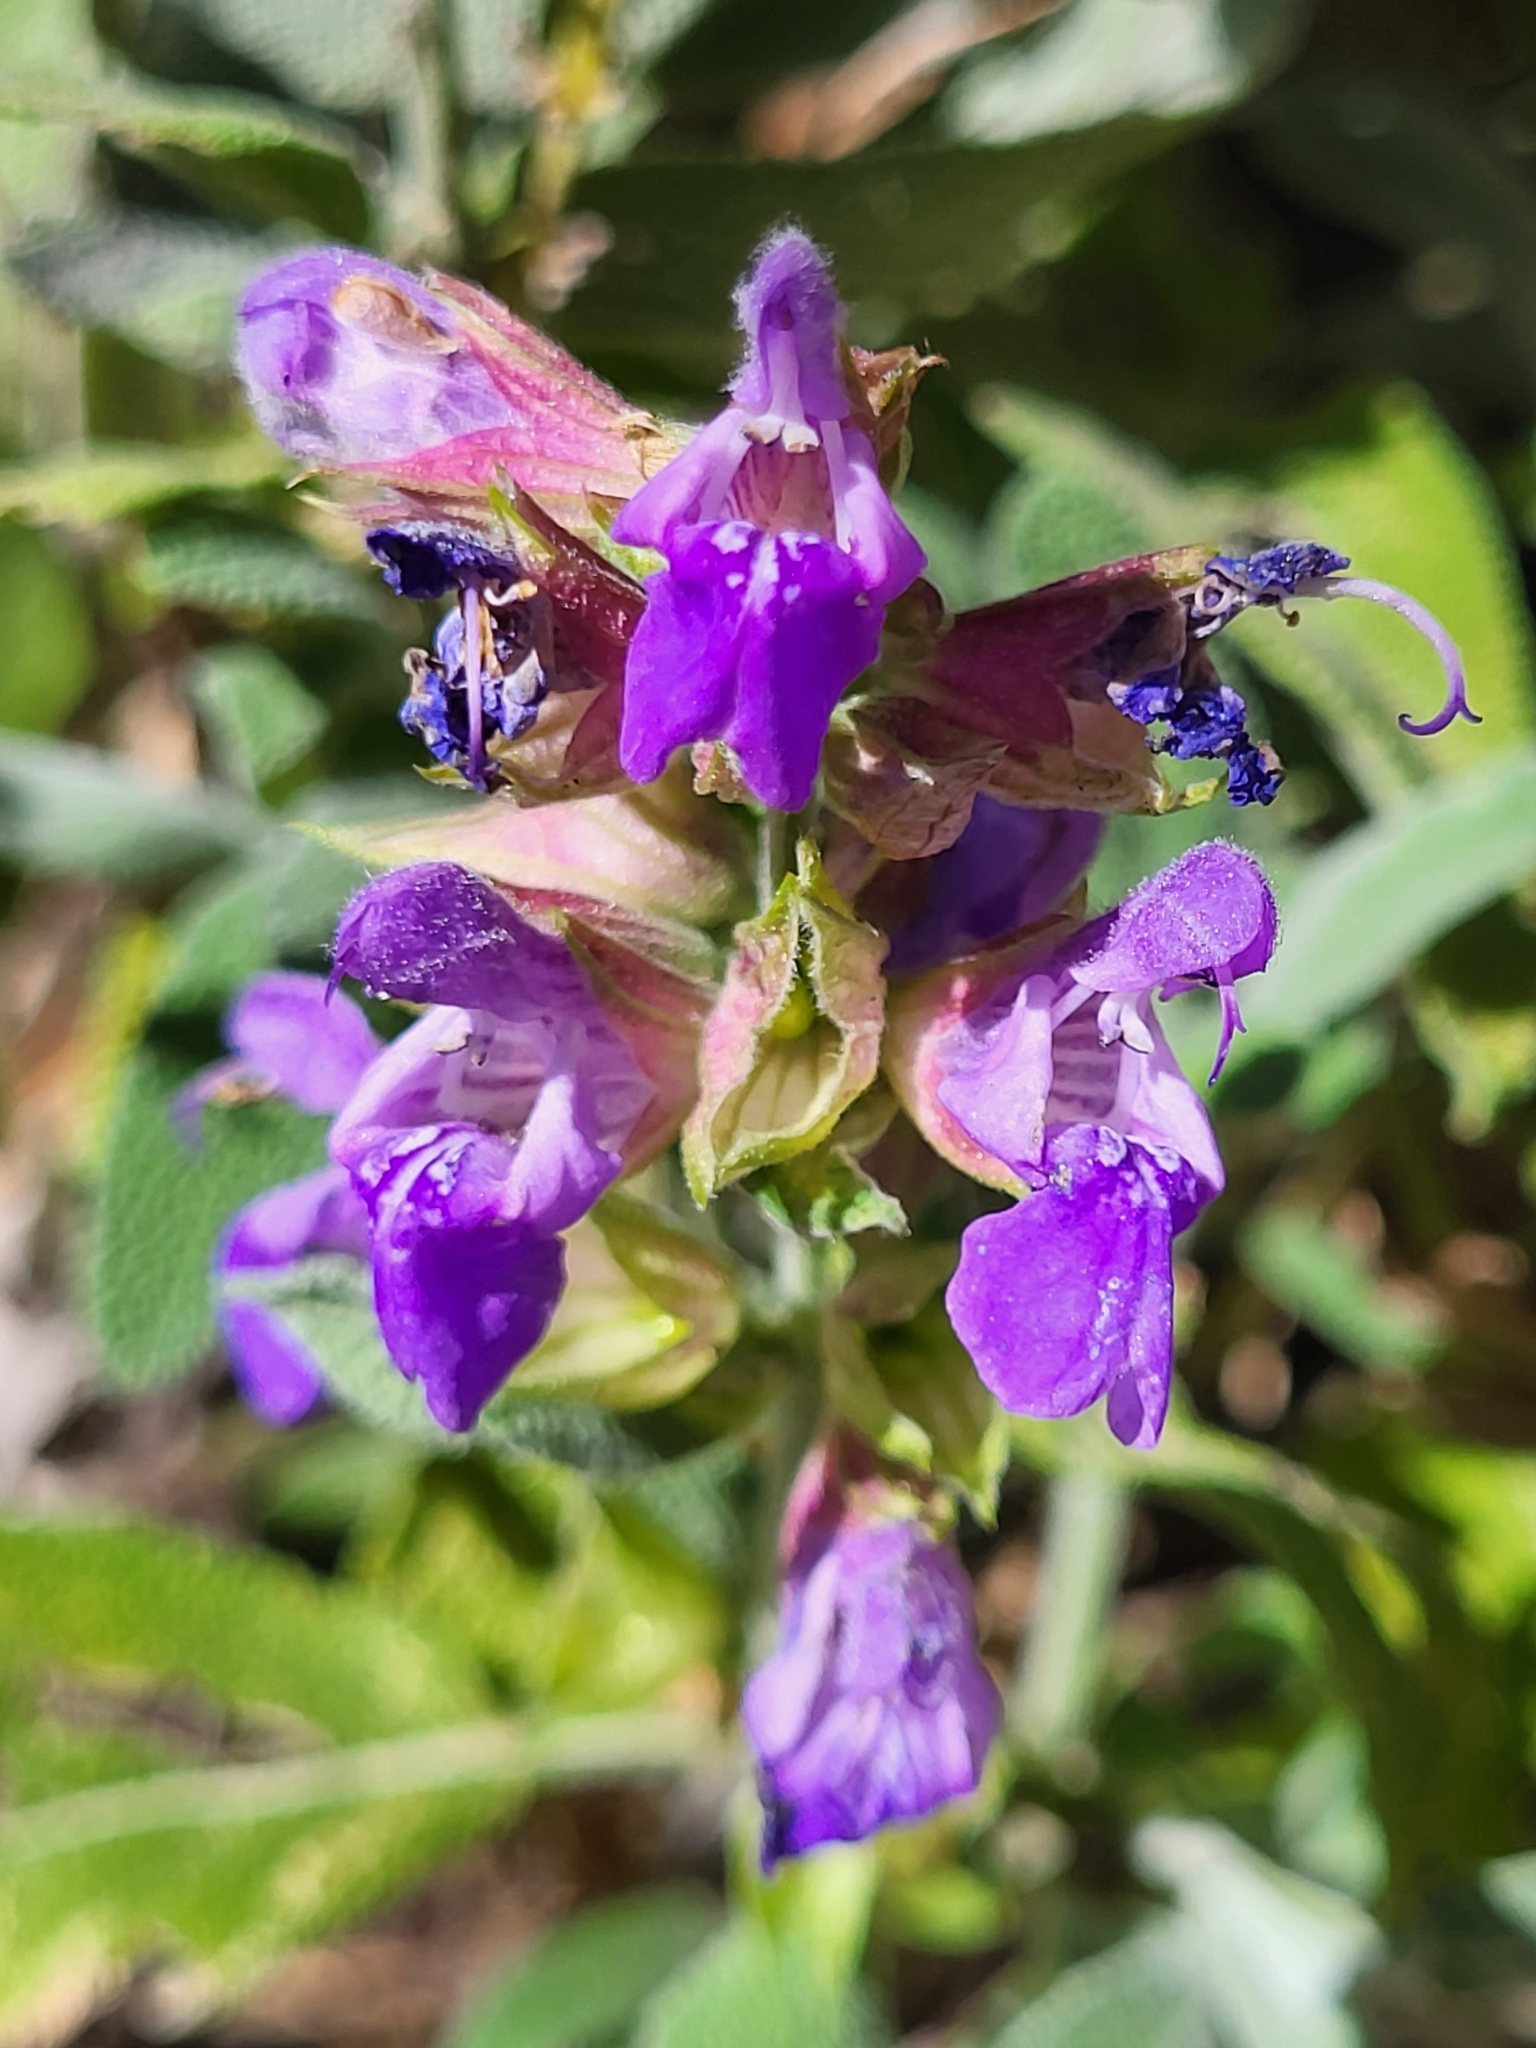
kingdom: Plantae
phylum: Tracheophyta
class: Magnoliopsida
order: Lamiales
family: Lamiaceae
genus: Salvia
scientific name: Salvia officinalis
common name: Sage
